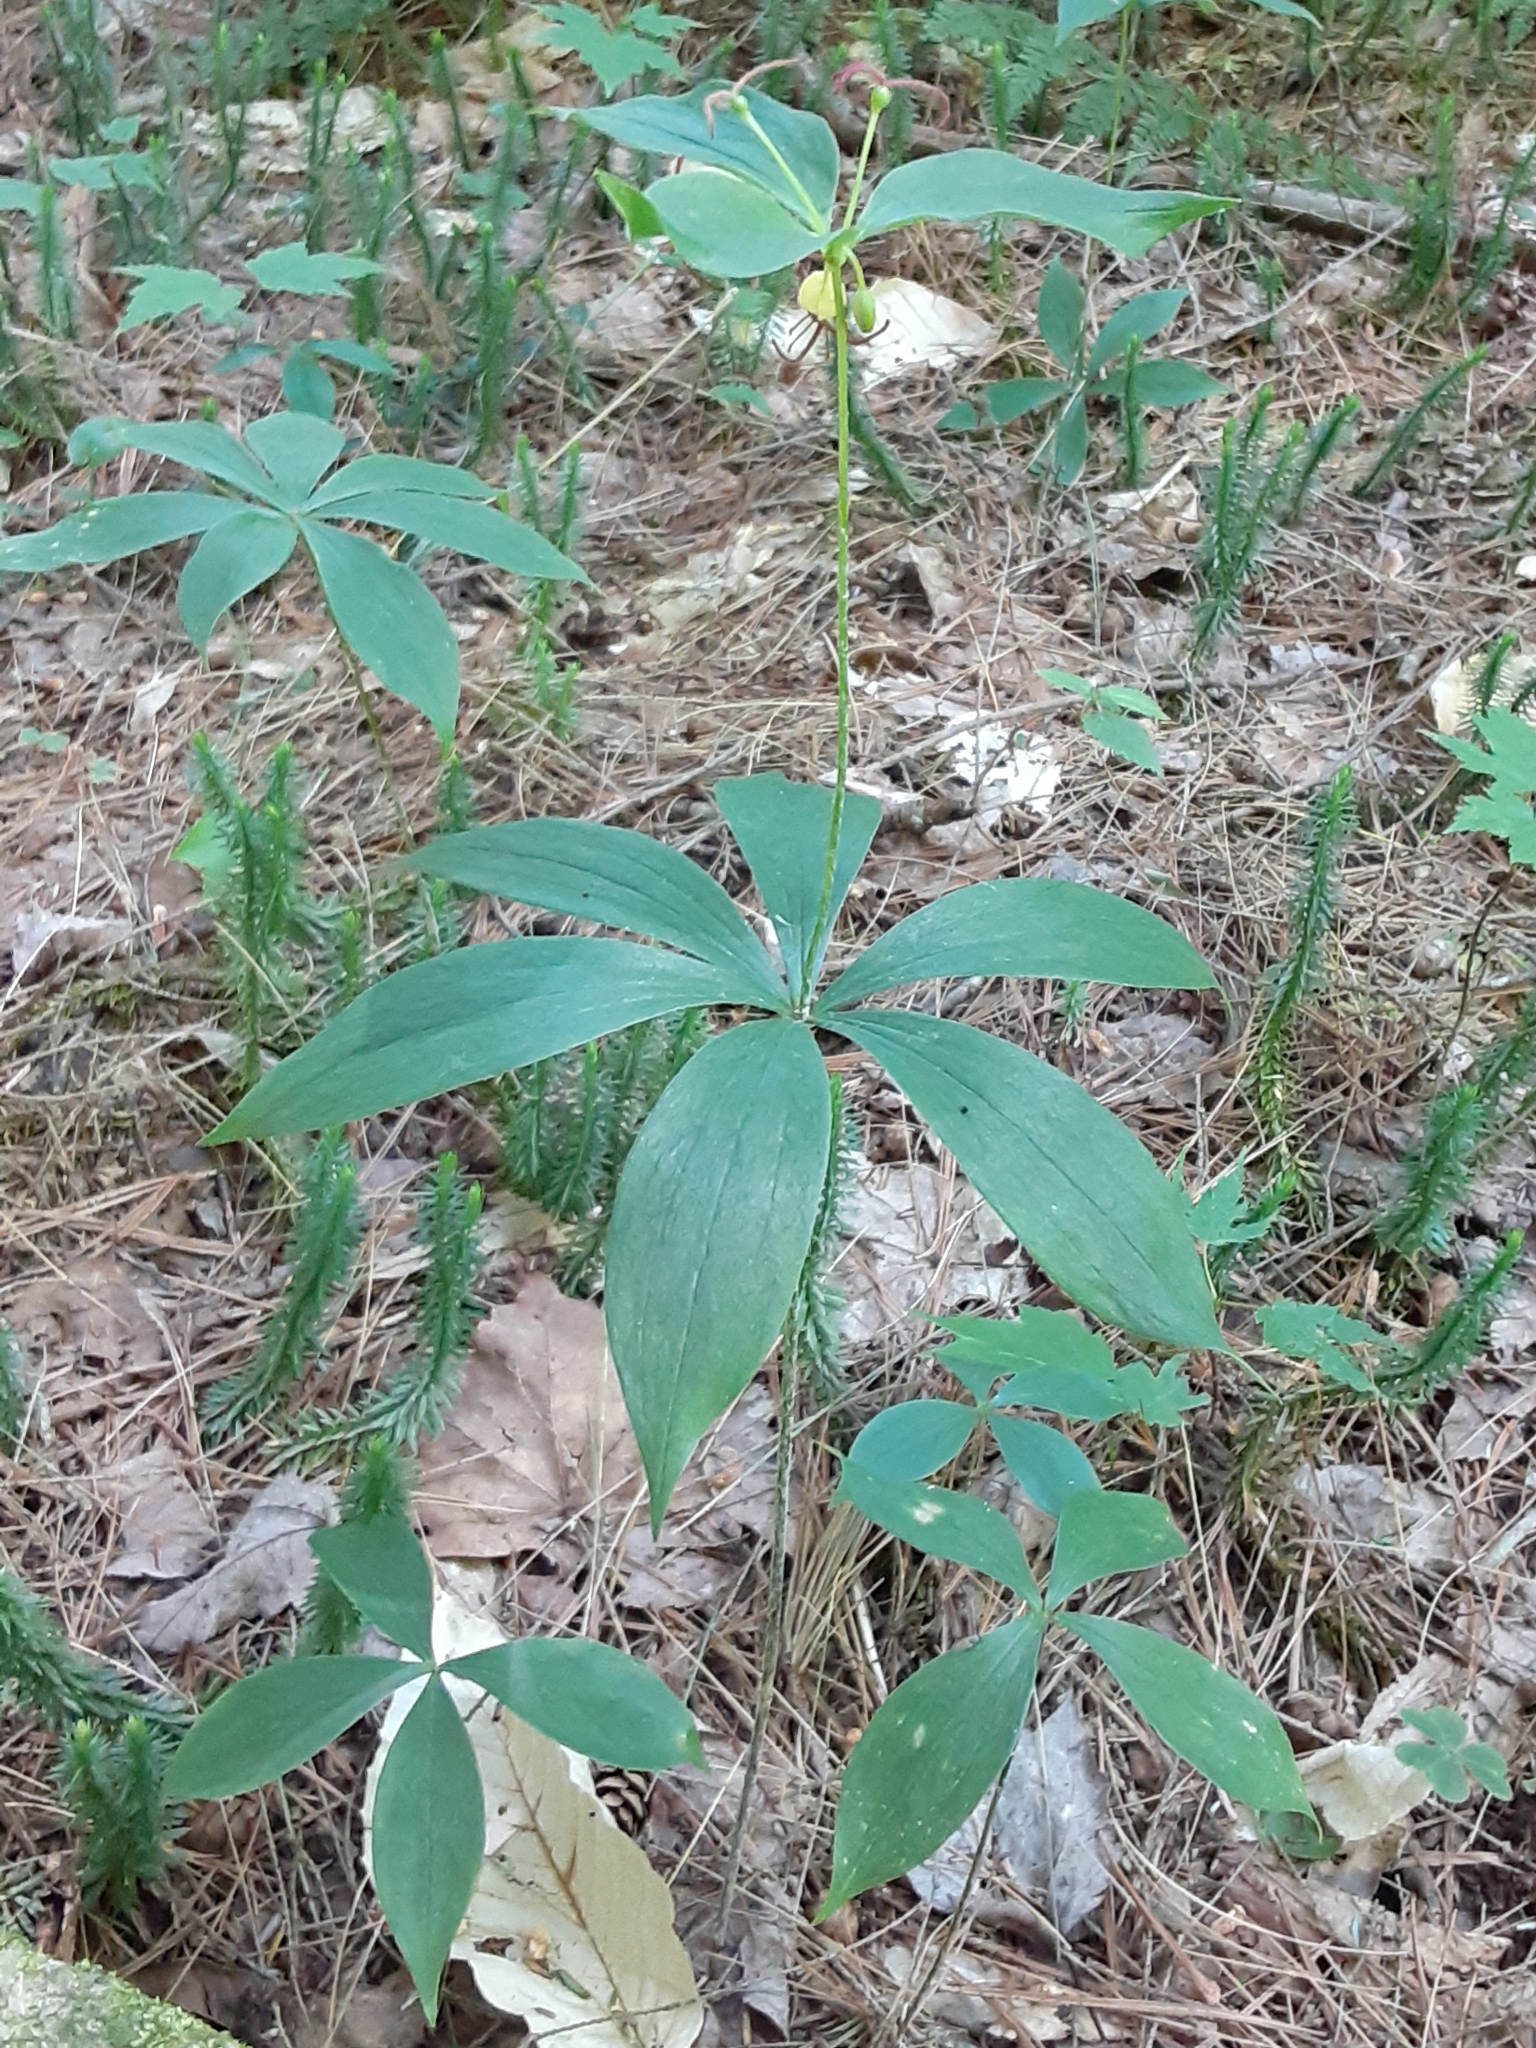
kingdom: Plantae
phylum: Tracheophyta
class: Liliopsida
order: Liliales
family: Liliaceae
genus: Medeola
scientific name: Medeola virginiana
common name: Indian cucumber-root
